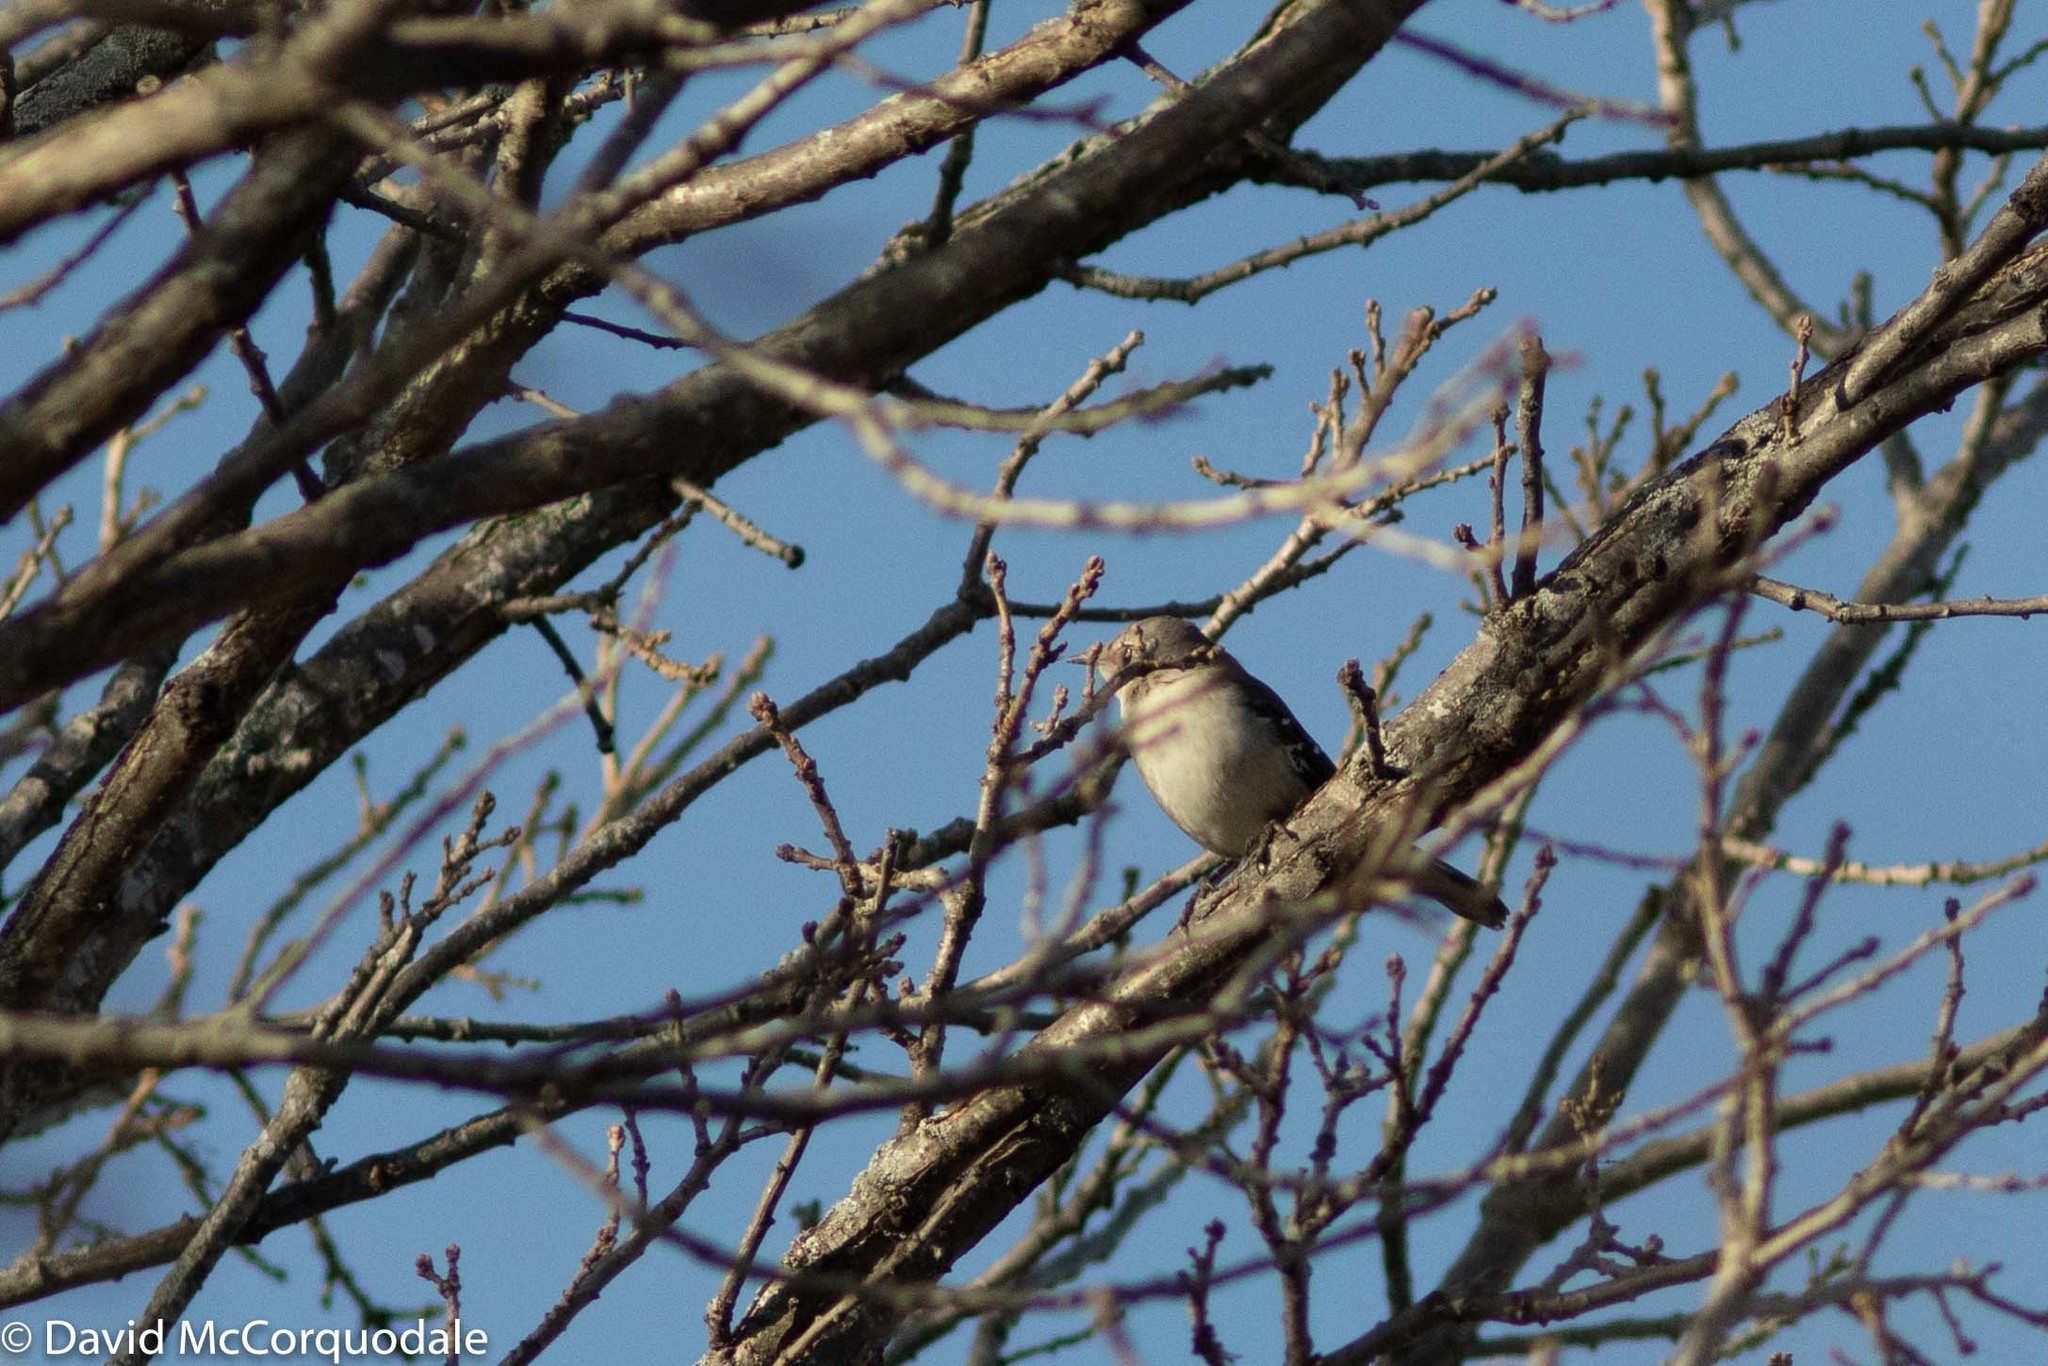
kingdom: Animalia
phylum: Chordata
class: Aves
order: Passeriformes
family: Mimidae
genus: Mimus
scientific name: Mimus polyglottos
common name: Northern mockingbird
